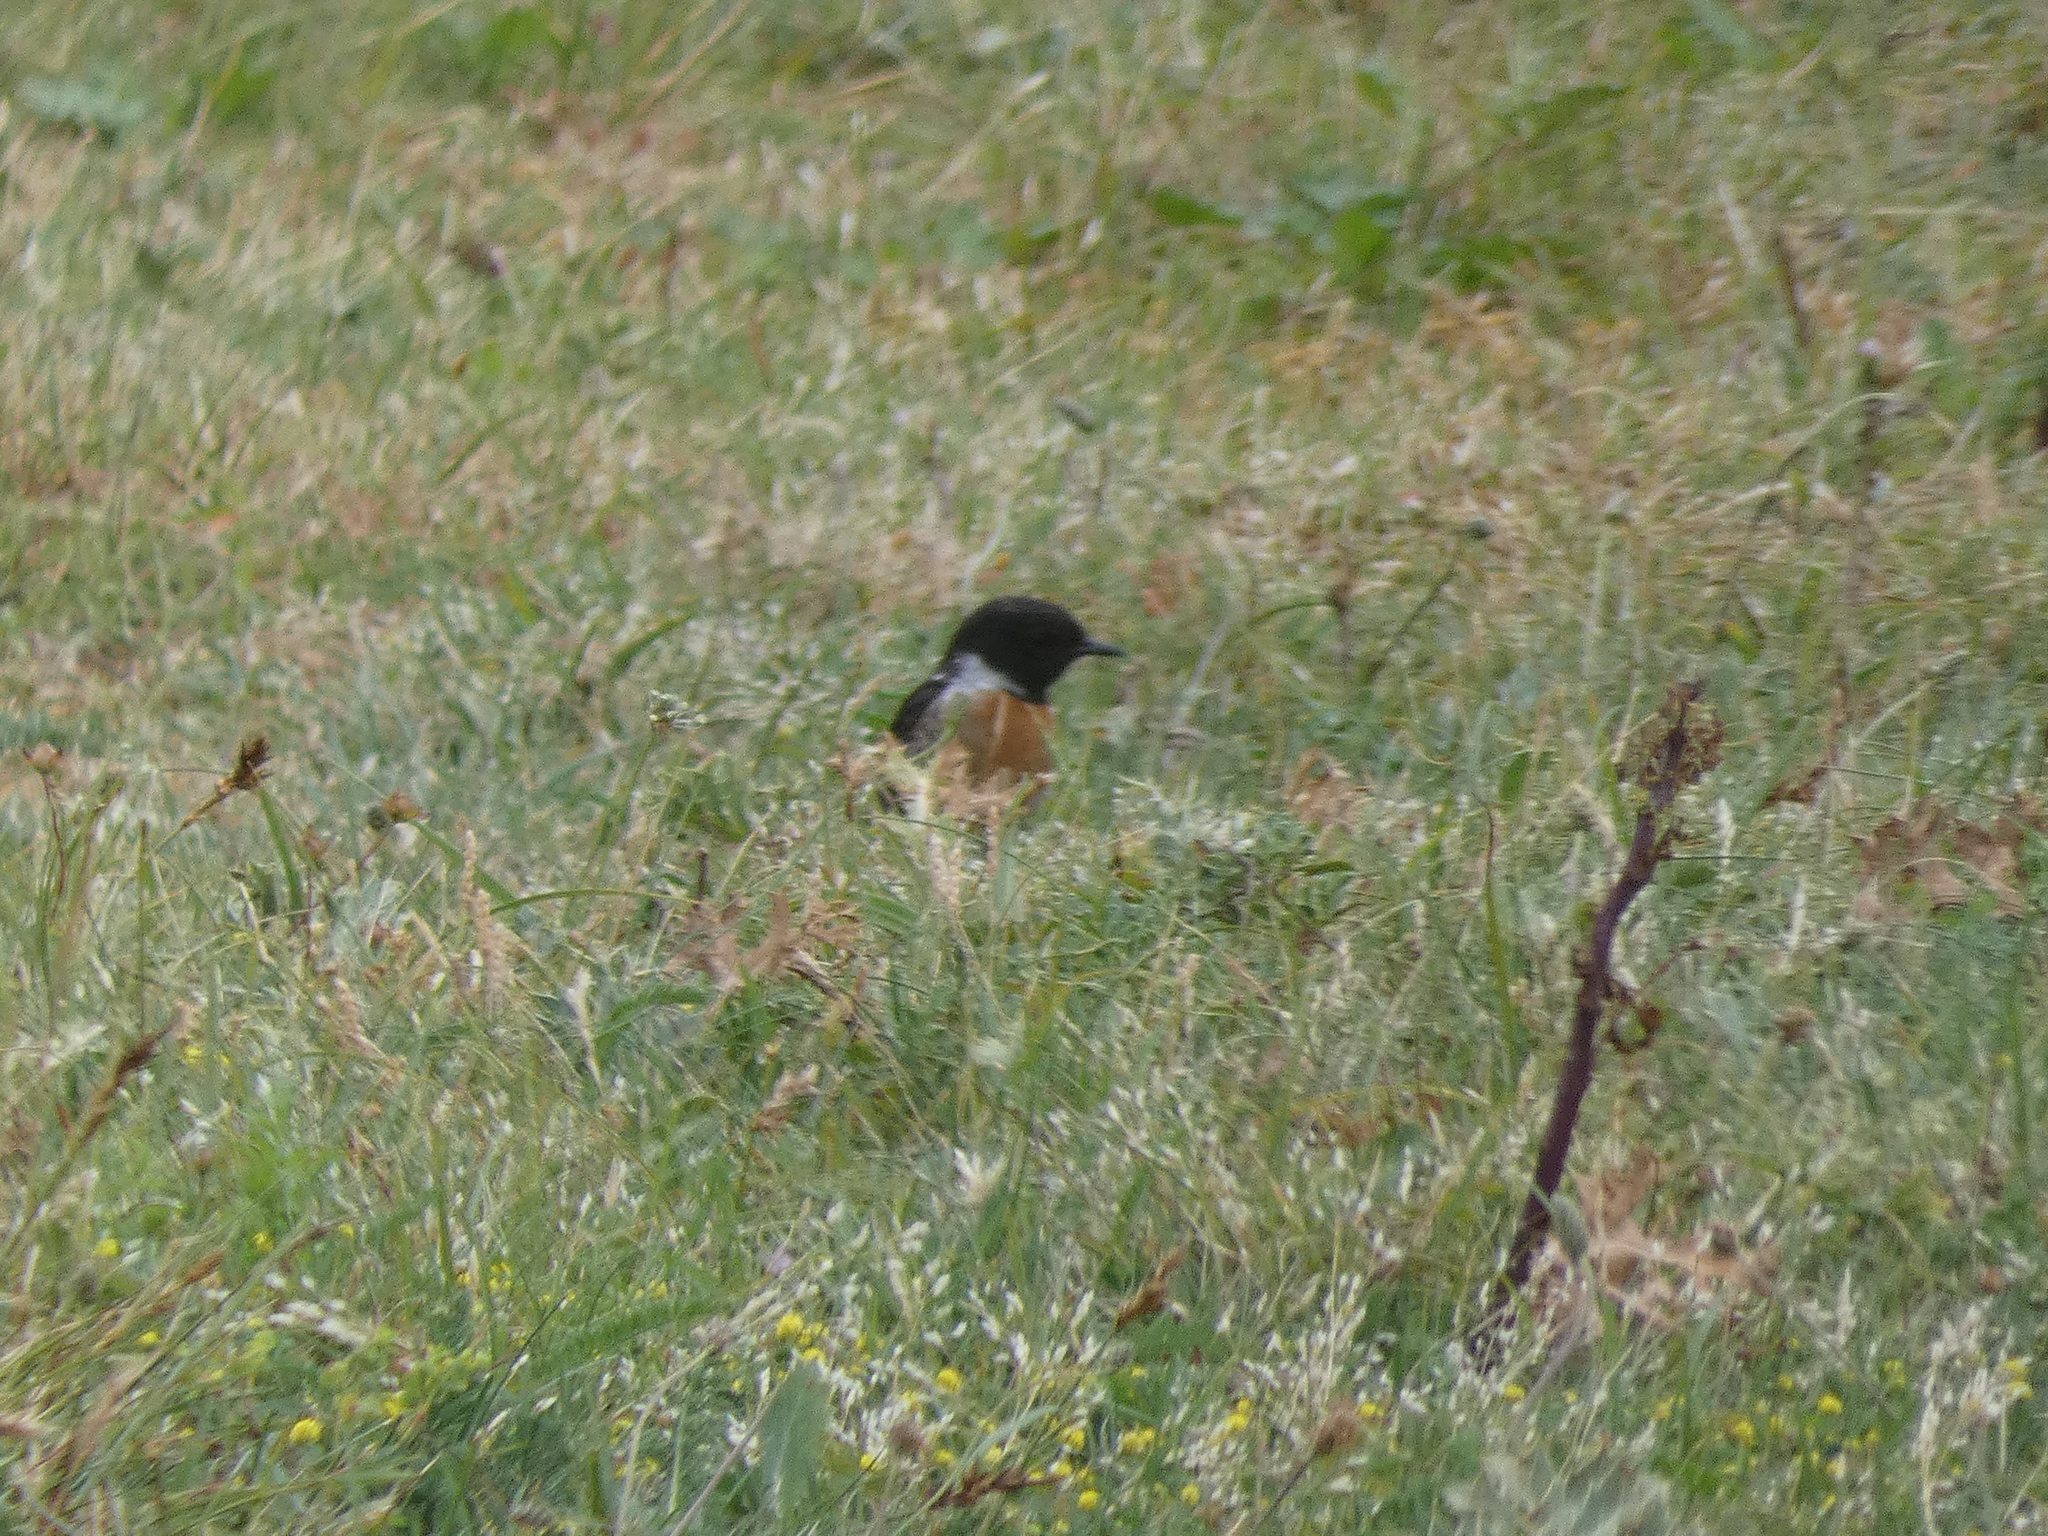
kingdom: Animalia
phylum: Chordata
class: Aves
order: Passeriformes
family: Muscicapidae
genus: Saxicola
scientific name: Saxicola rubicola
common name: European stonechat
